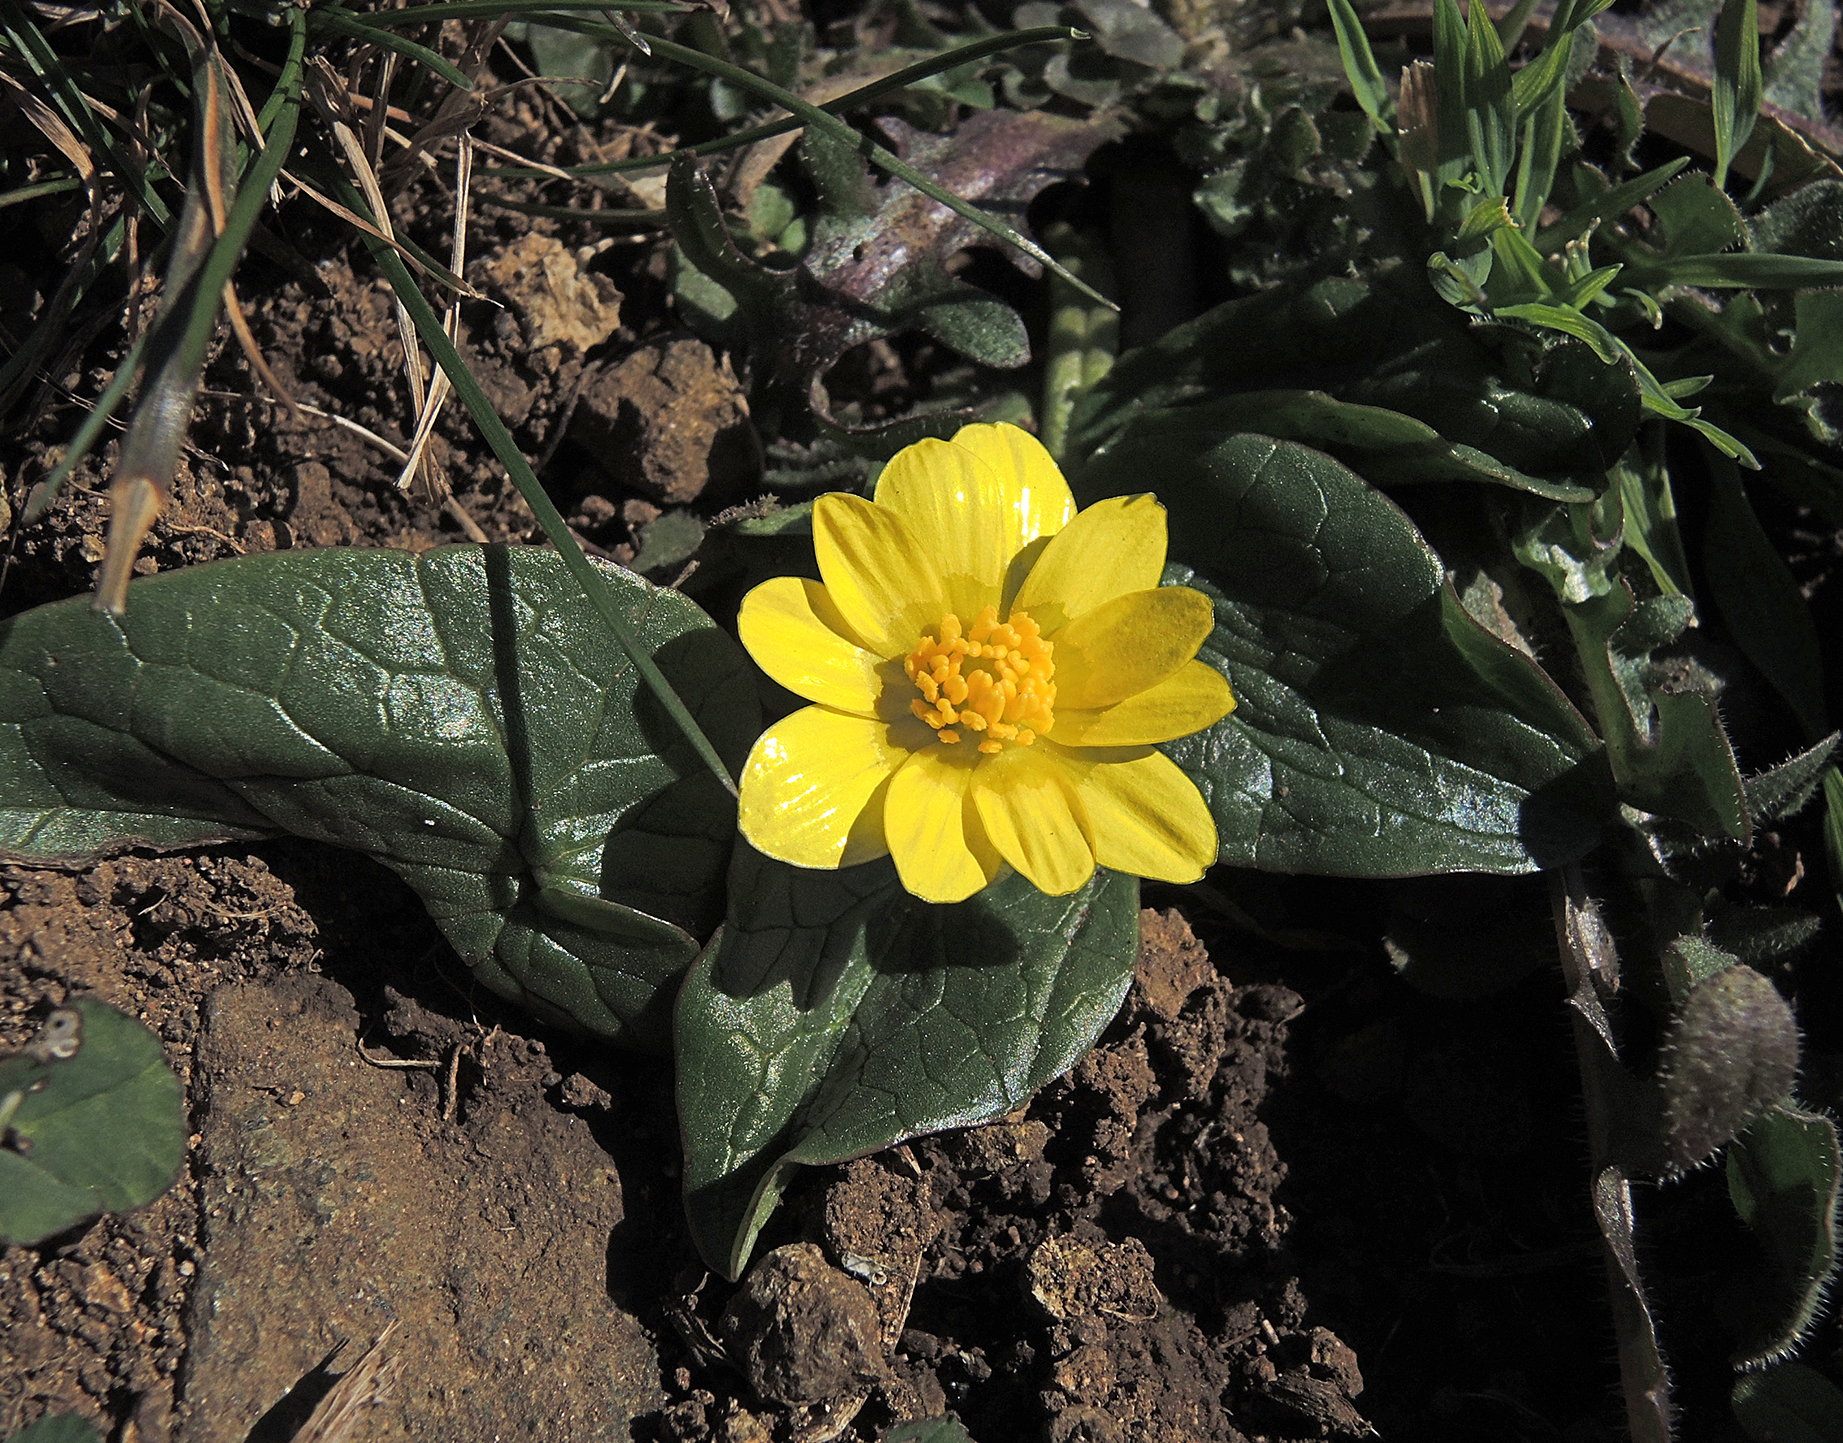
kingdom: Plantae
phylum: Tracheophyta
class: Magnoliopsida
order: Ranunculales
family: Ranunculaceae
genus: Ficaria
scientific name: Ficaria verna
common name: Lesser celandine
